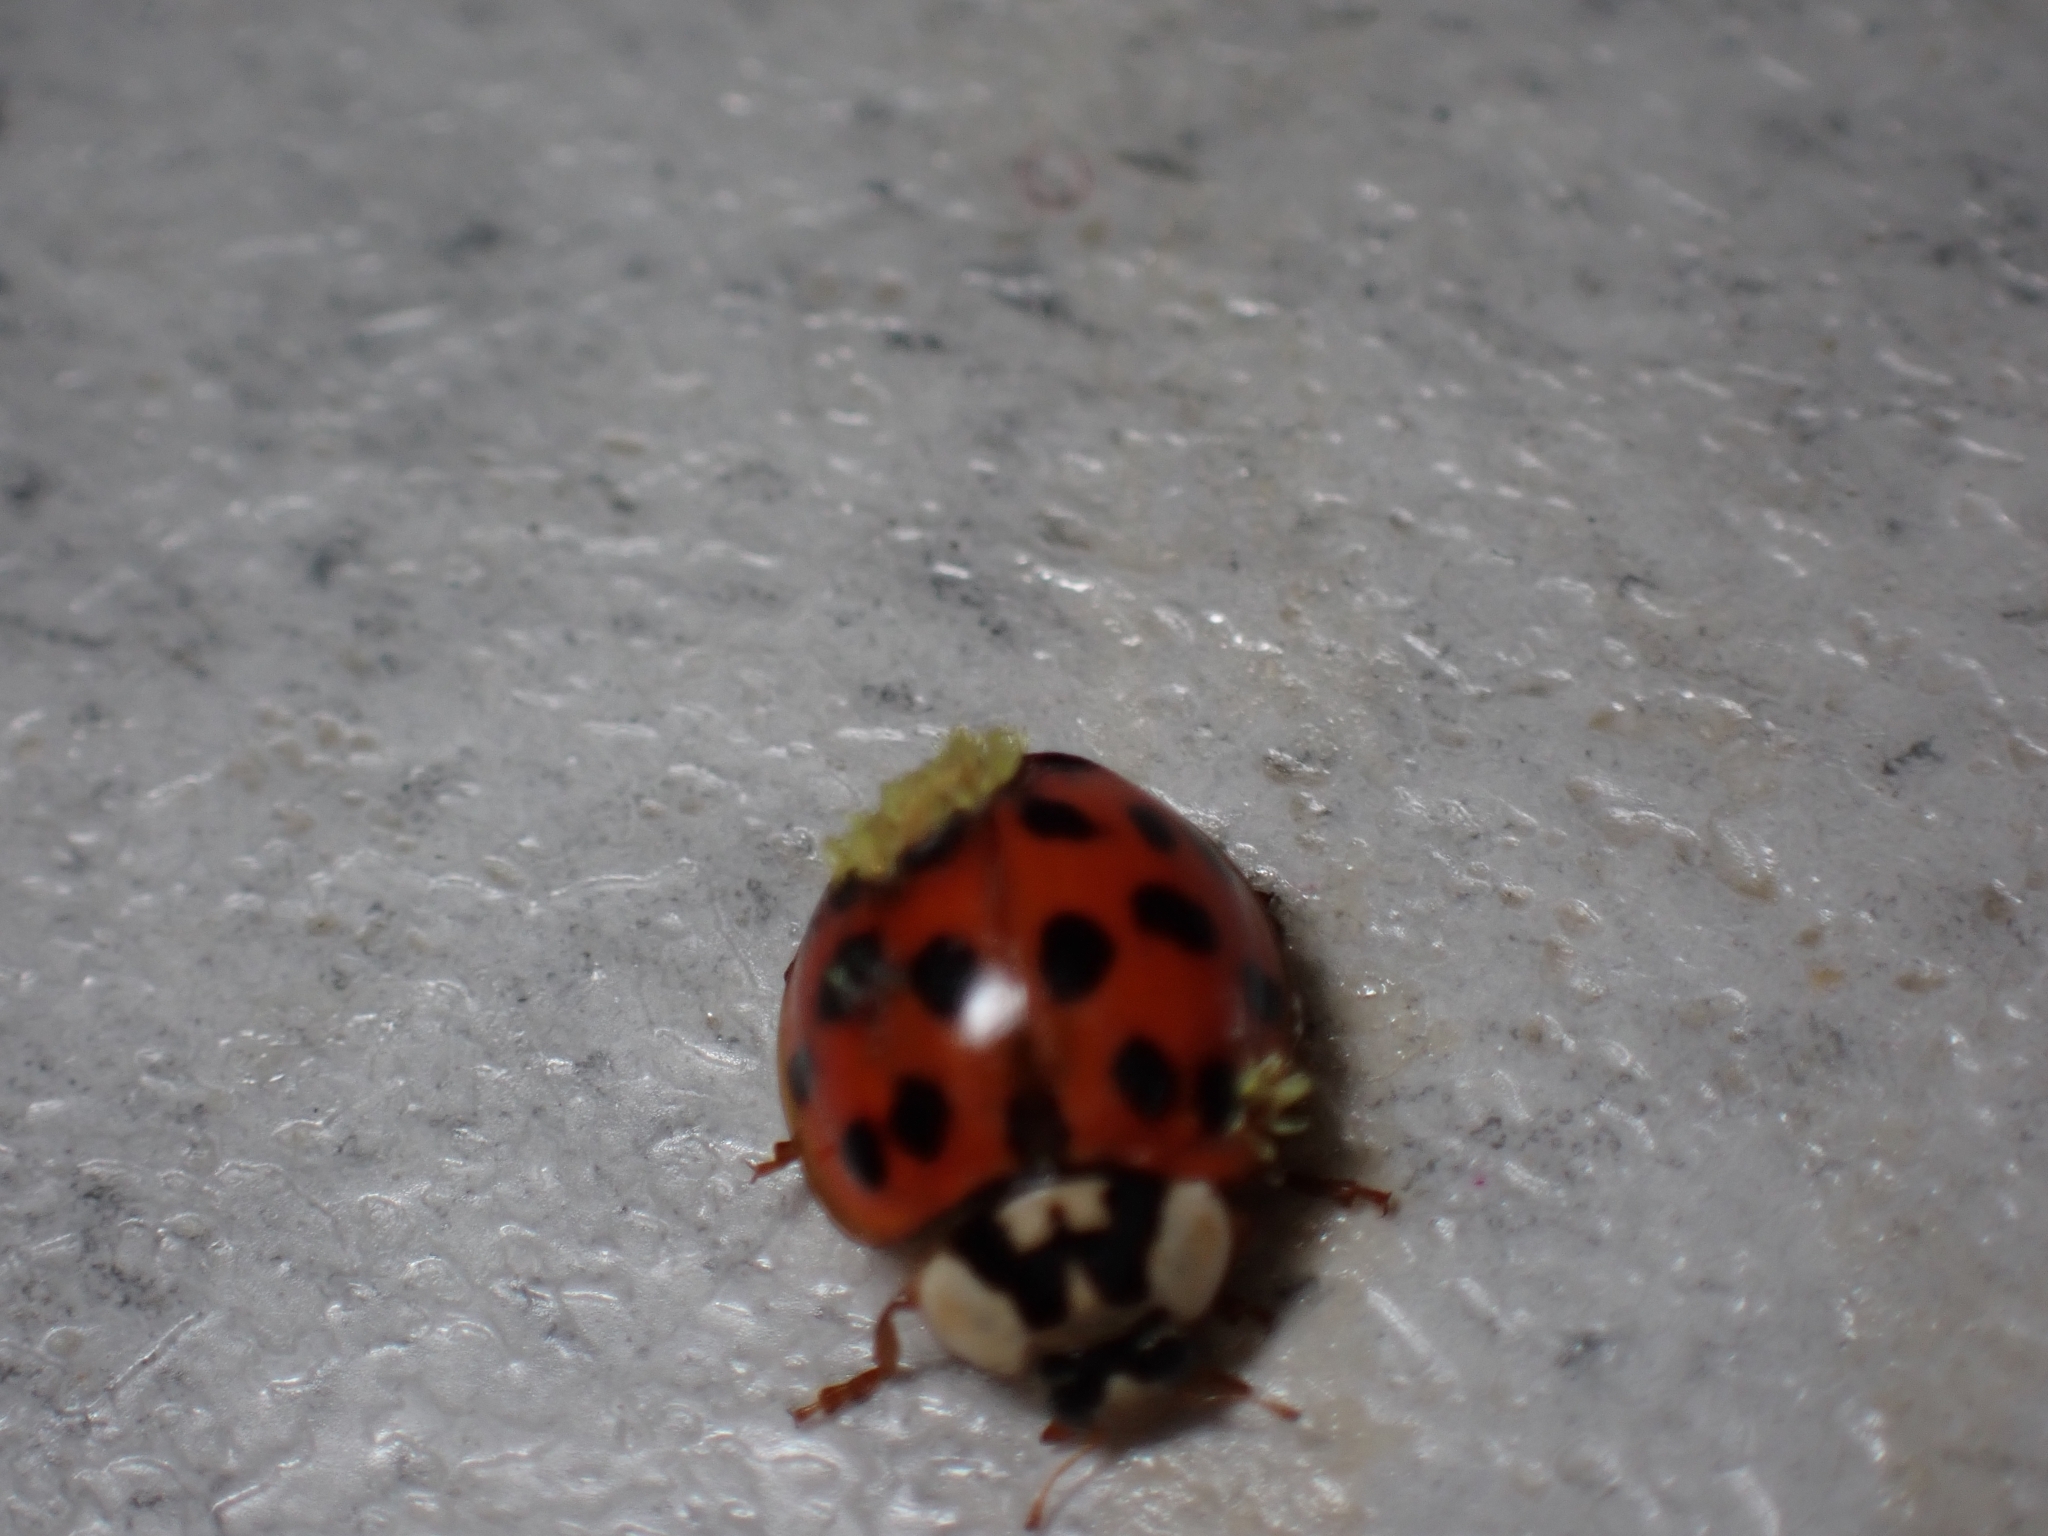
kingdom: Animalia
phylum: Arthropoda
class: Insecta
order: Coleoptera
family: Coccinellidae
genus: Harmonia
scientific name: Harmonia axyridis
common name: Harlequin ladybird
